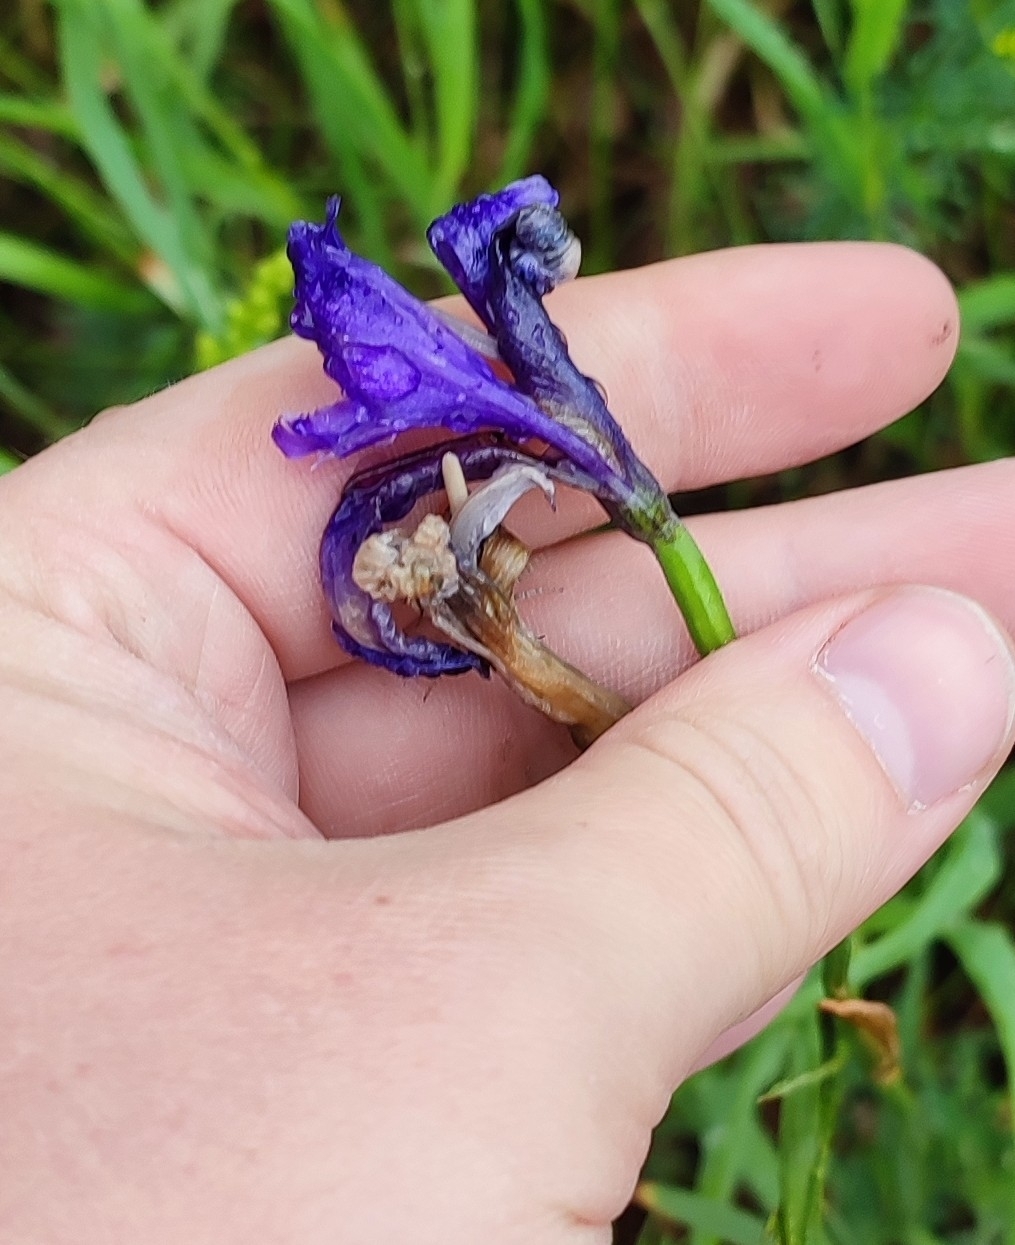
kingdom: Plantae
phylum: Tracheophyta
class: Liliopsida
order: Asparagales
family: Iridaceae
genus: Iris
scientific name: Iris sibirica
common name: Siberian iris
